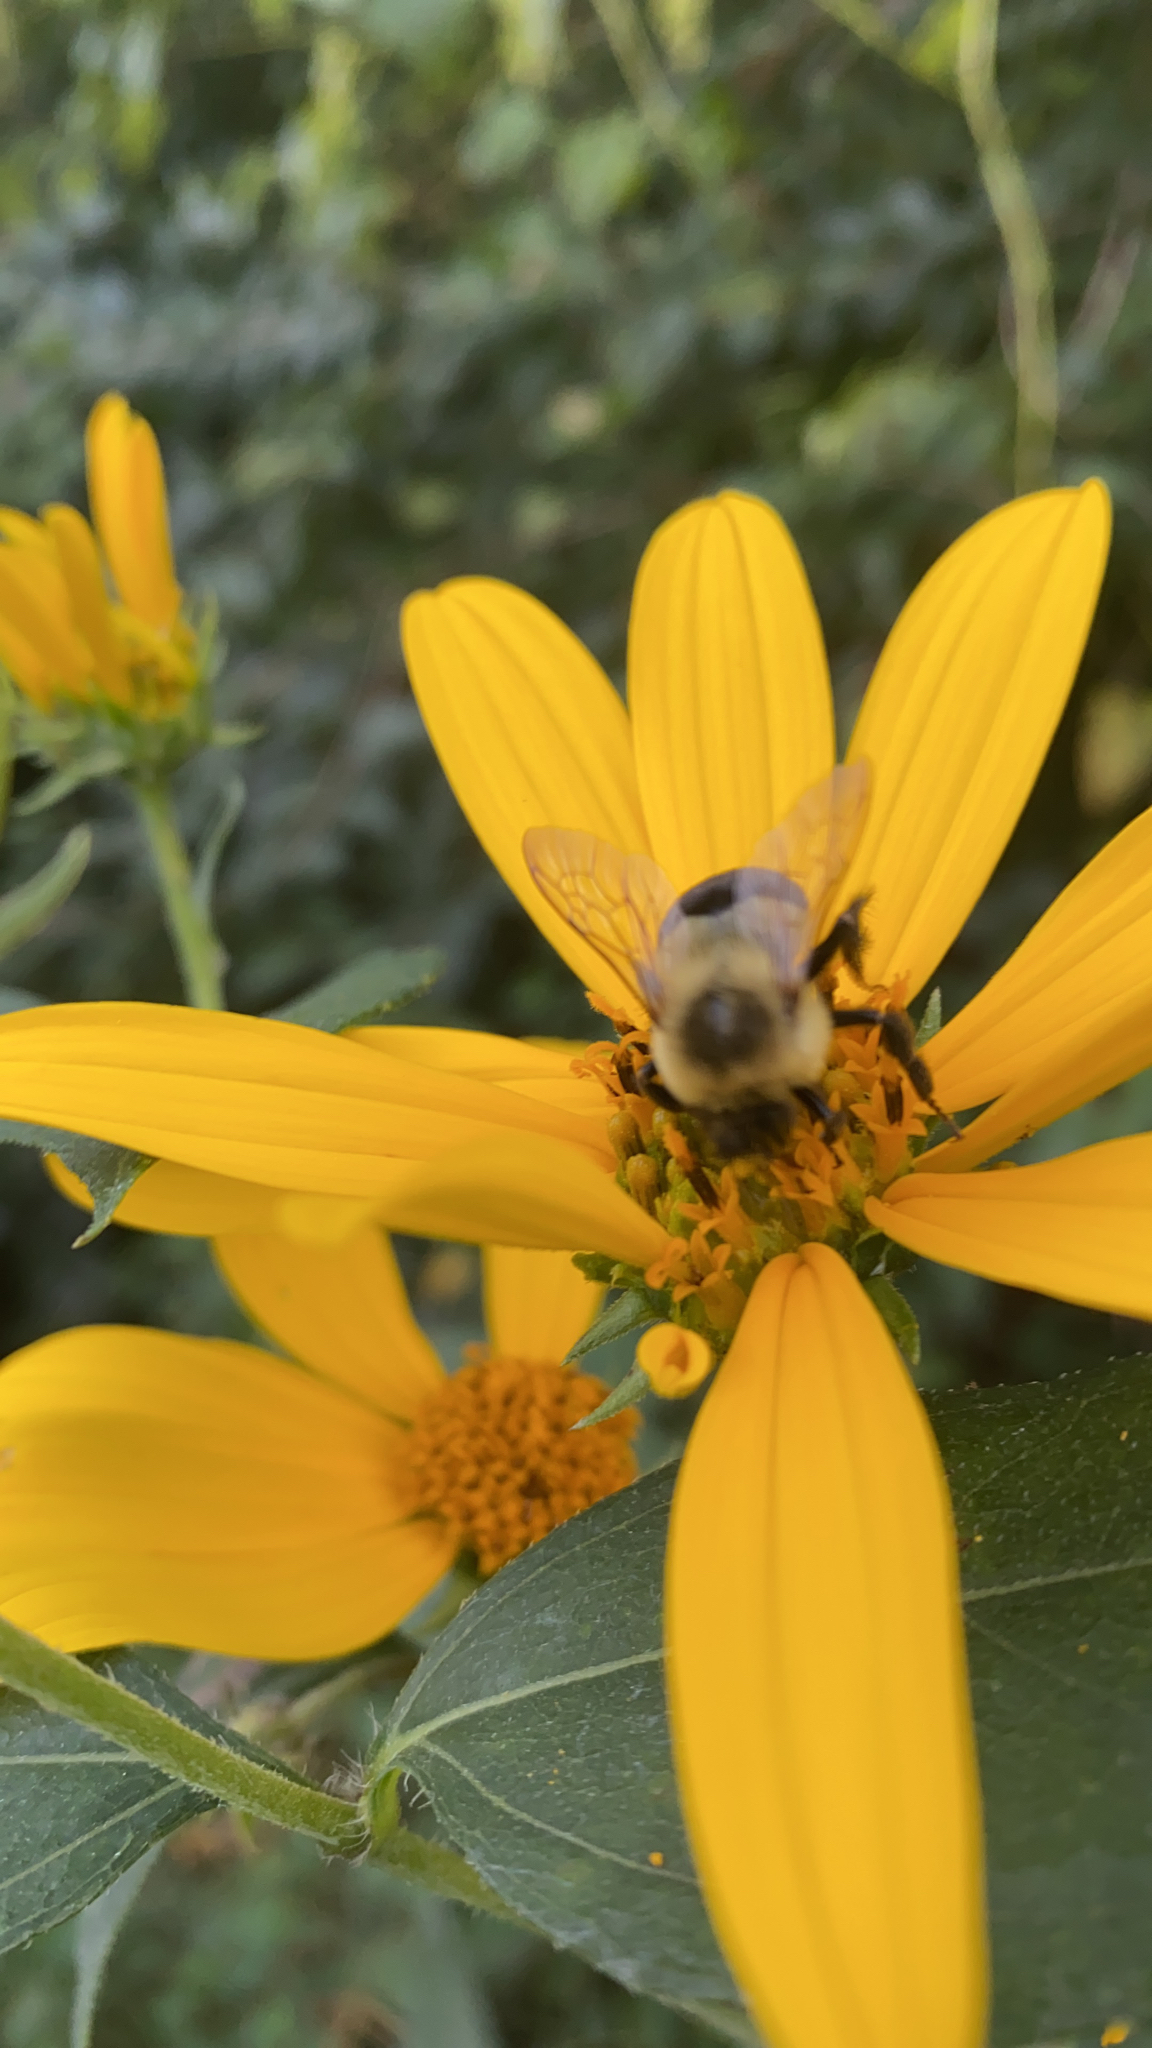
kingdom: Animalia
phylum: Arthropoda
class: Insecta
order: Hymenoptera
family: Apidae
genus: Bombus
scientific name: Bombus impatiens
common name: Common eastern bumble bee
